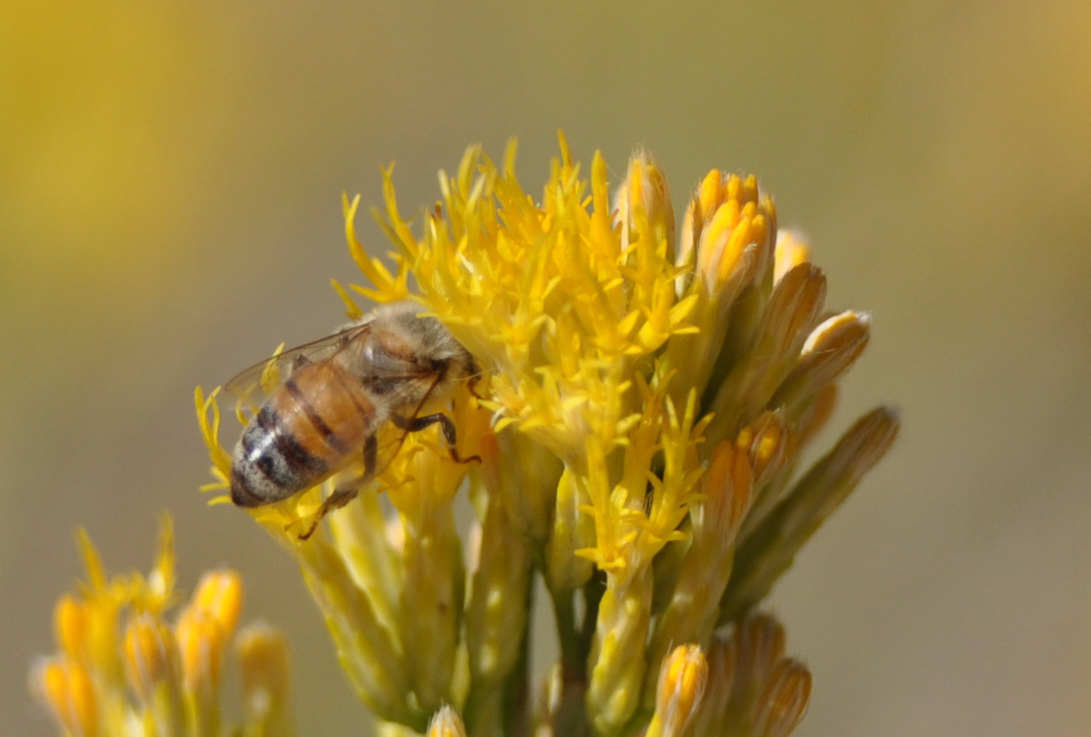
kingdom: Animalia
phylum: Arthropoda
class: Insecta
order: Hymenoptera
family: Apidae
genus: Apis
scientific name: Apis mellifera
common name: Honey bee
